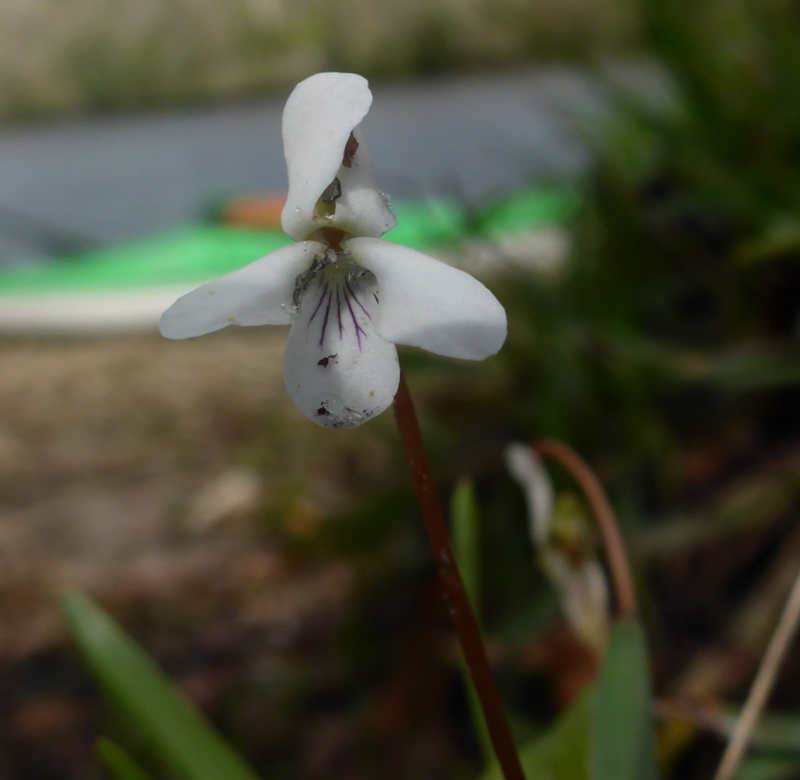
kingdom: Plantae
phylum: Tracheophyta
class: Magnoliopsida
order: Malpighiales
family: Violaceae
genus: Viola
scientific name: Viola primulifolia
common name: Primrose-leaf violet
